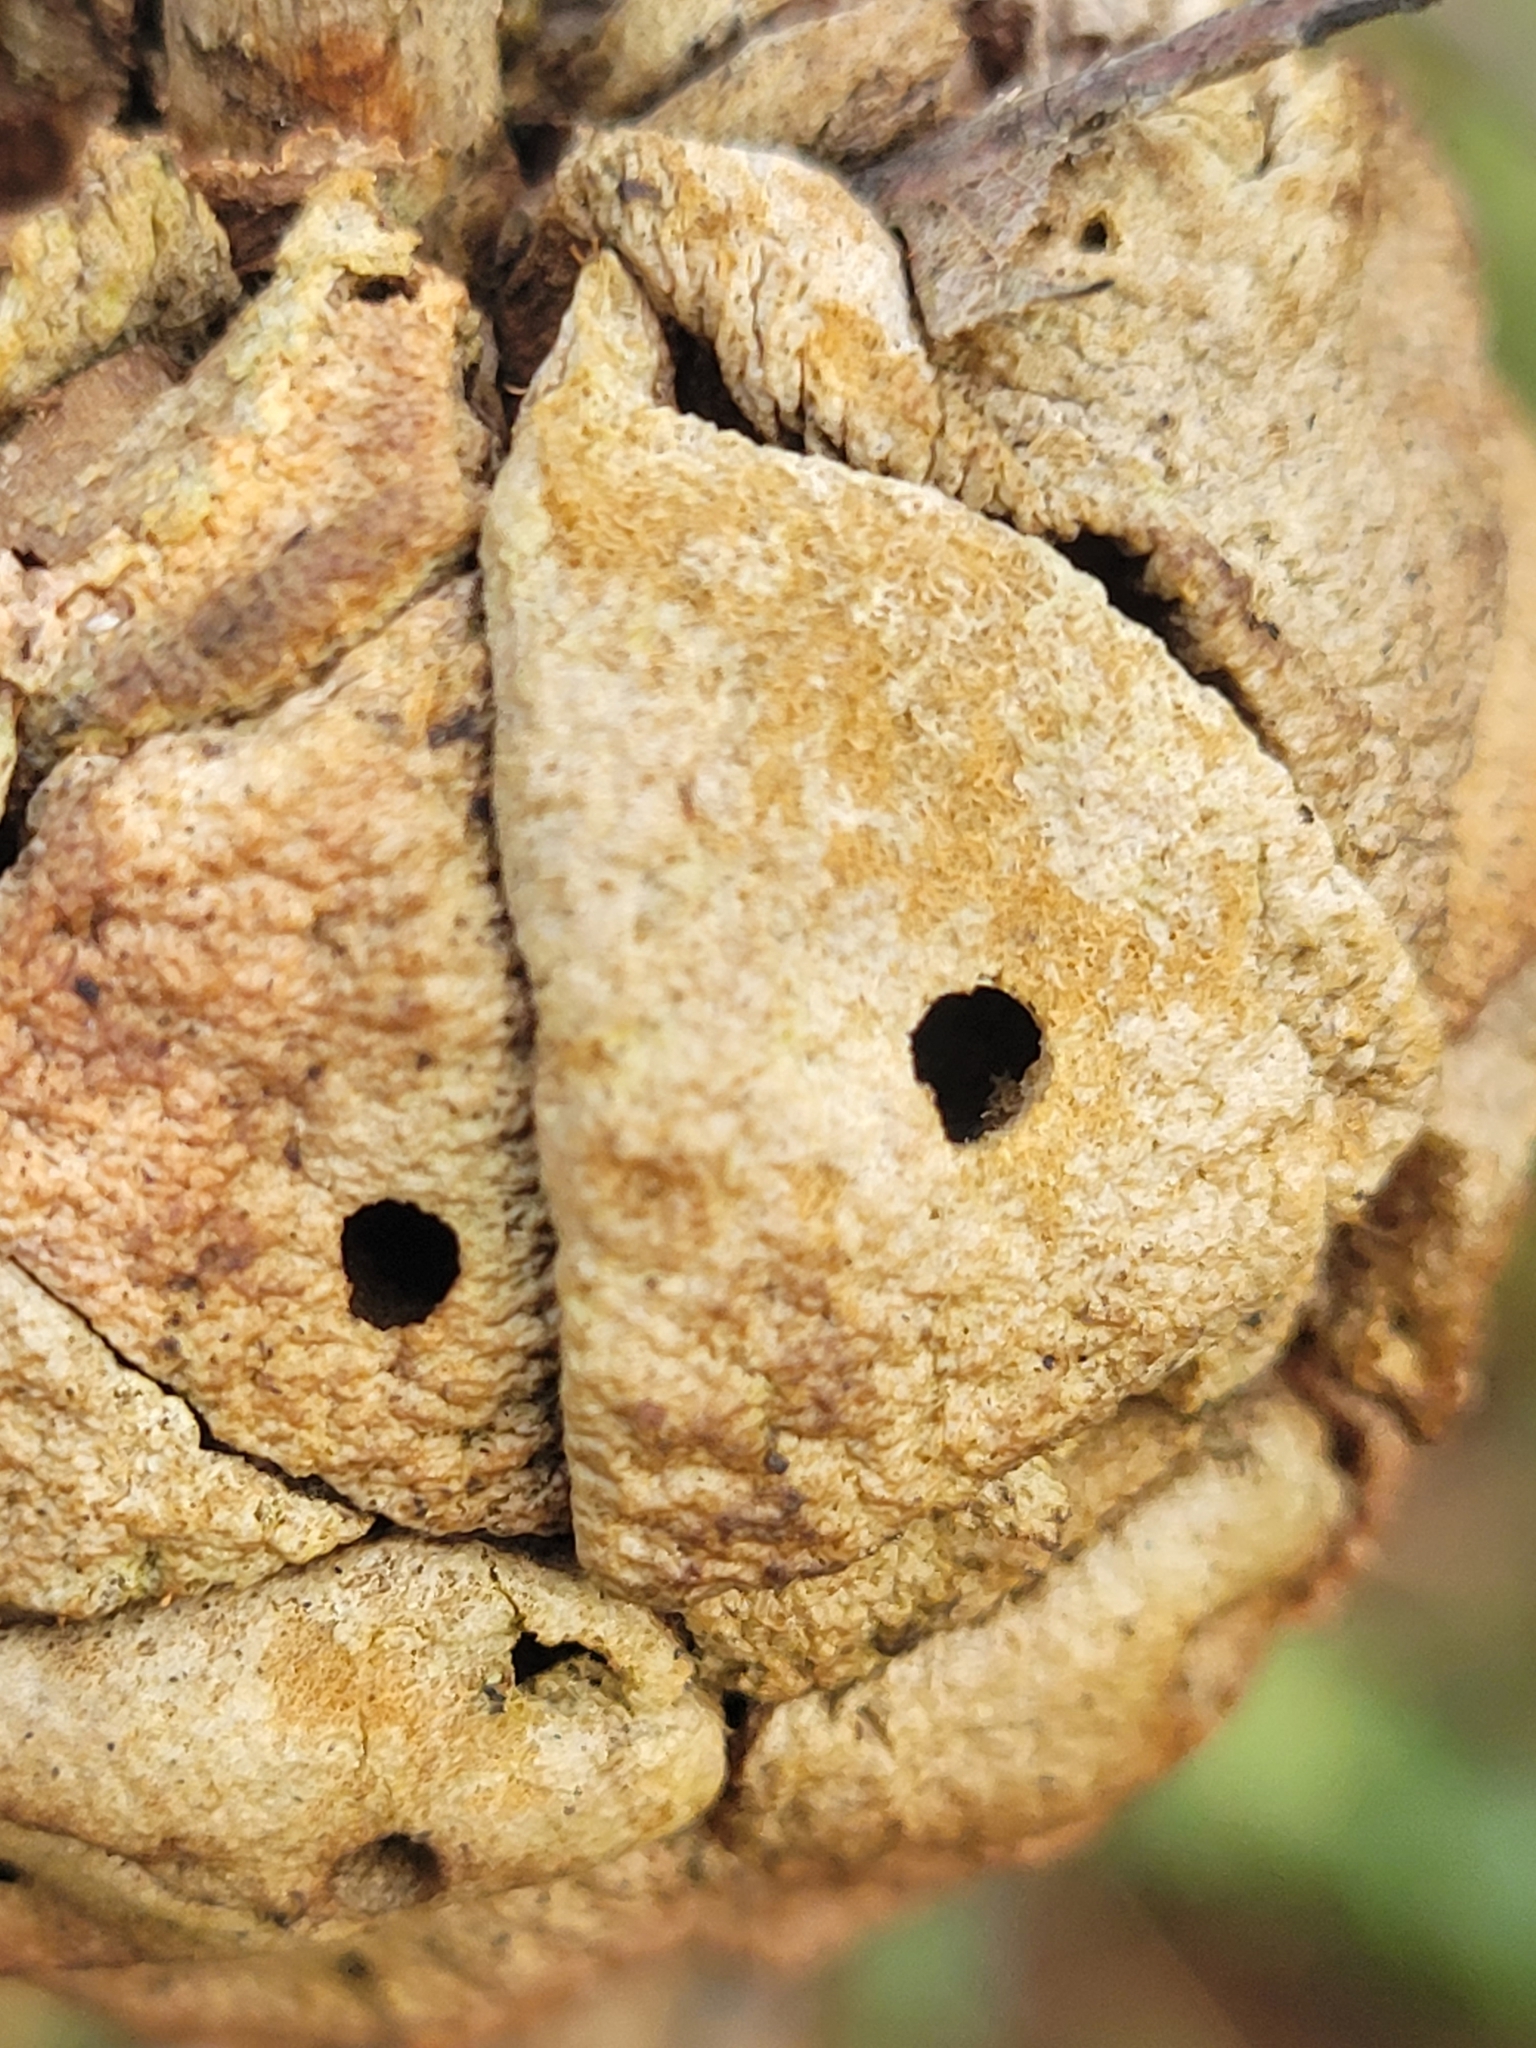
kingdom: Animalia
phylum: Arthropoda
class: Insecta
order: Hymenoptera
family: Cynipidae
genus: Disholcaspis
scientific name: Disholcaspis
